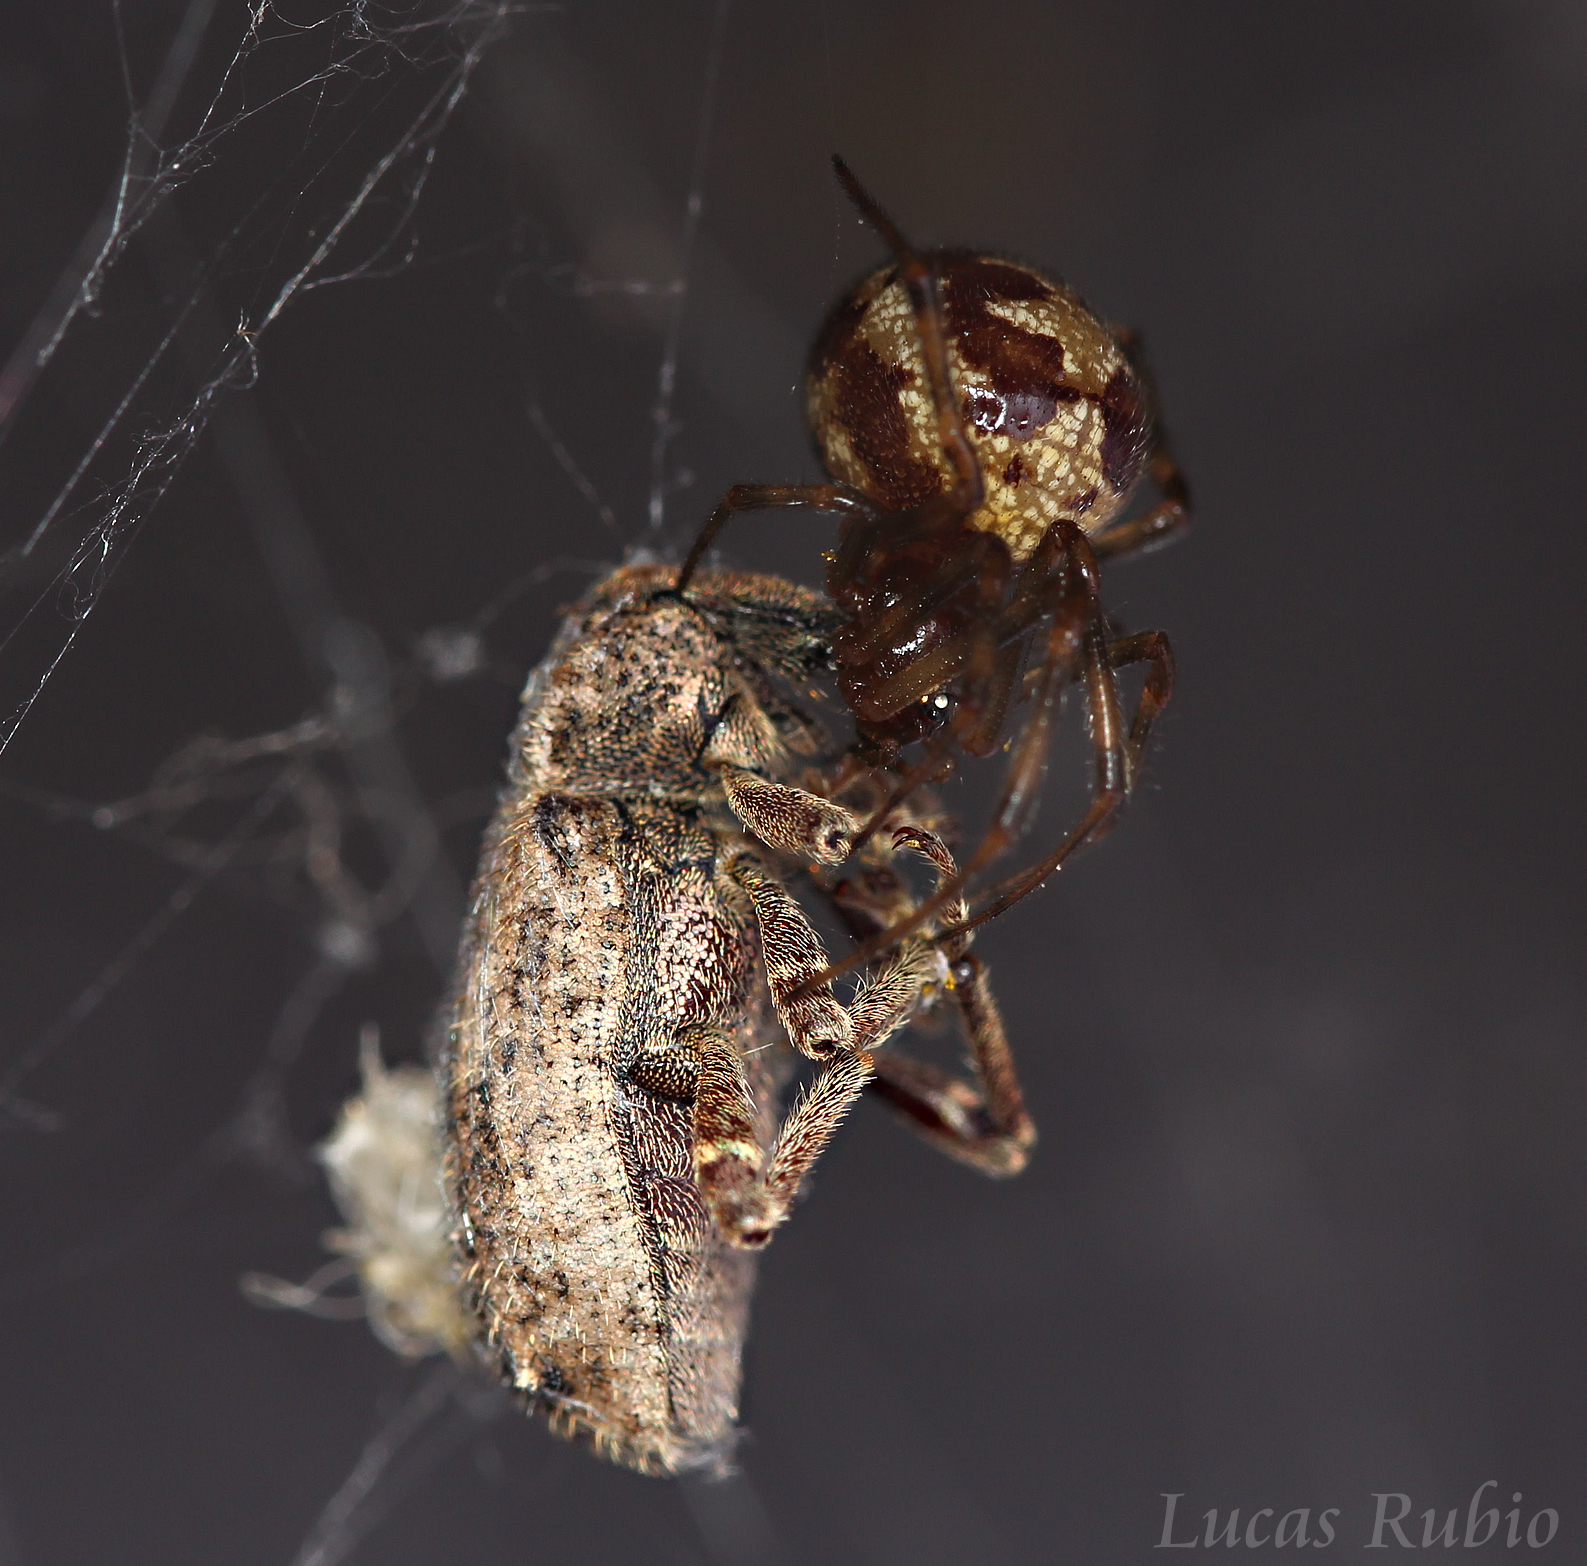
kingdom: Animalia
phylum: Arthropoda
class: Arachnida
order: Araneae
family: Theridiidae
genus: Steatoda
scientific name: Steatoda triangulosa
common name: Triangulate bud spider
